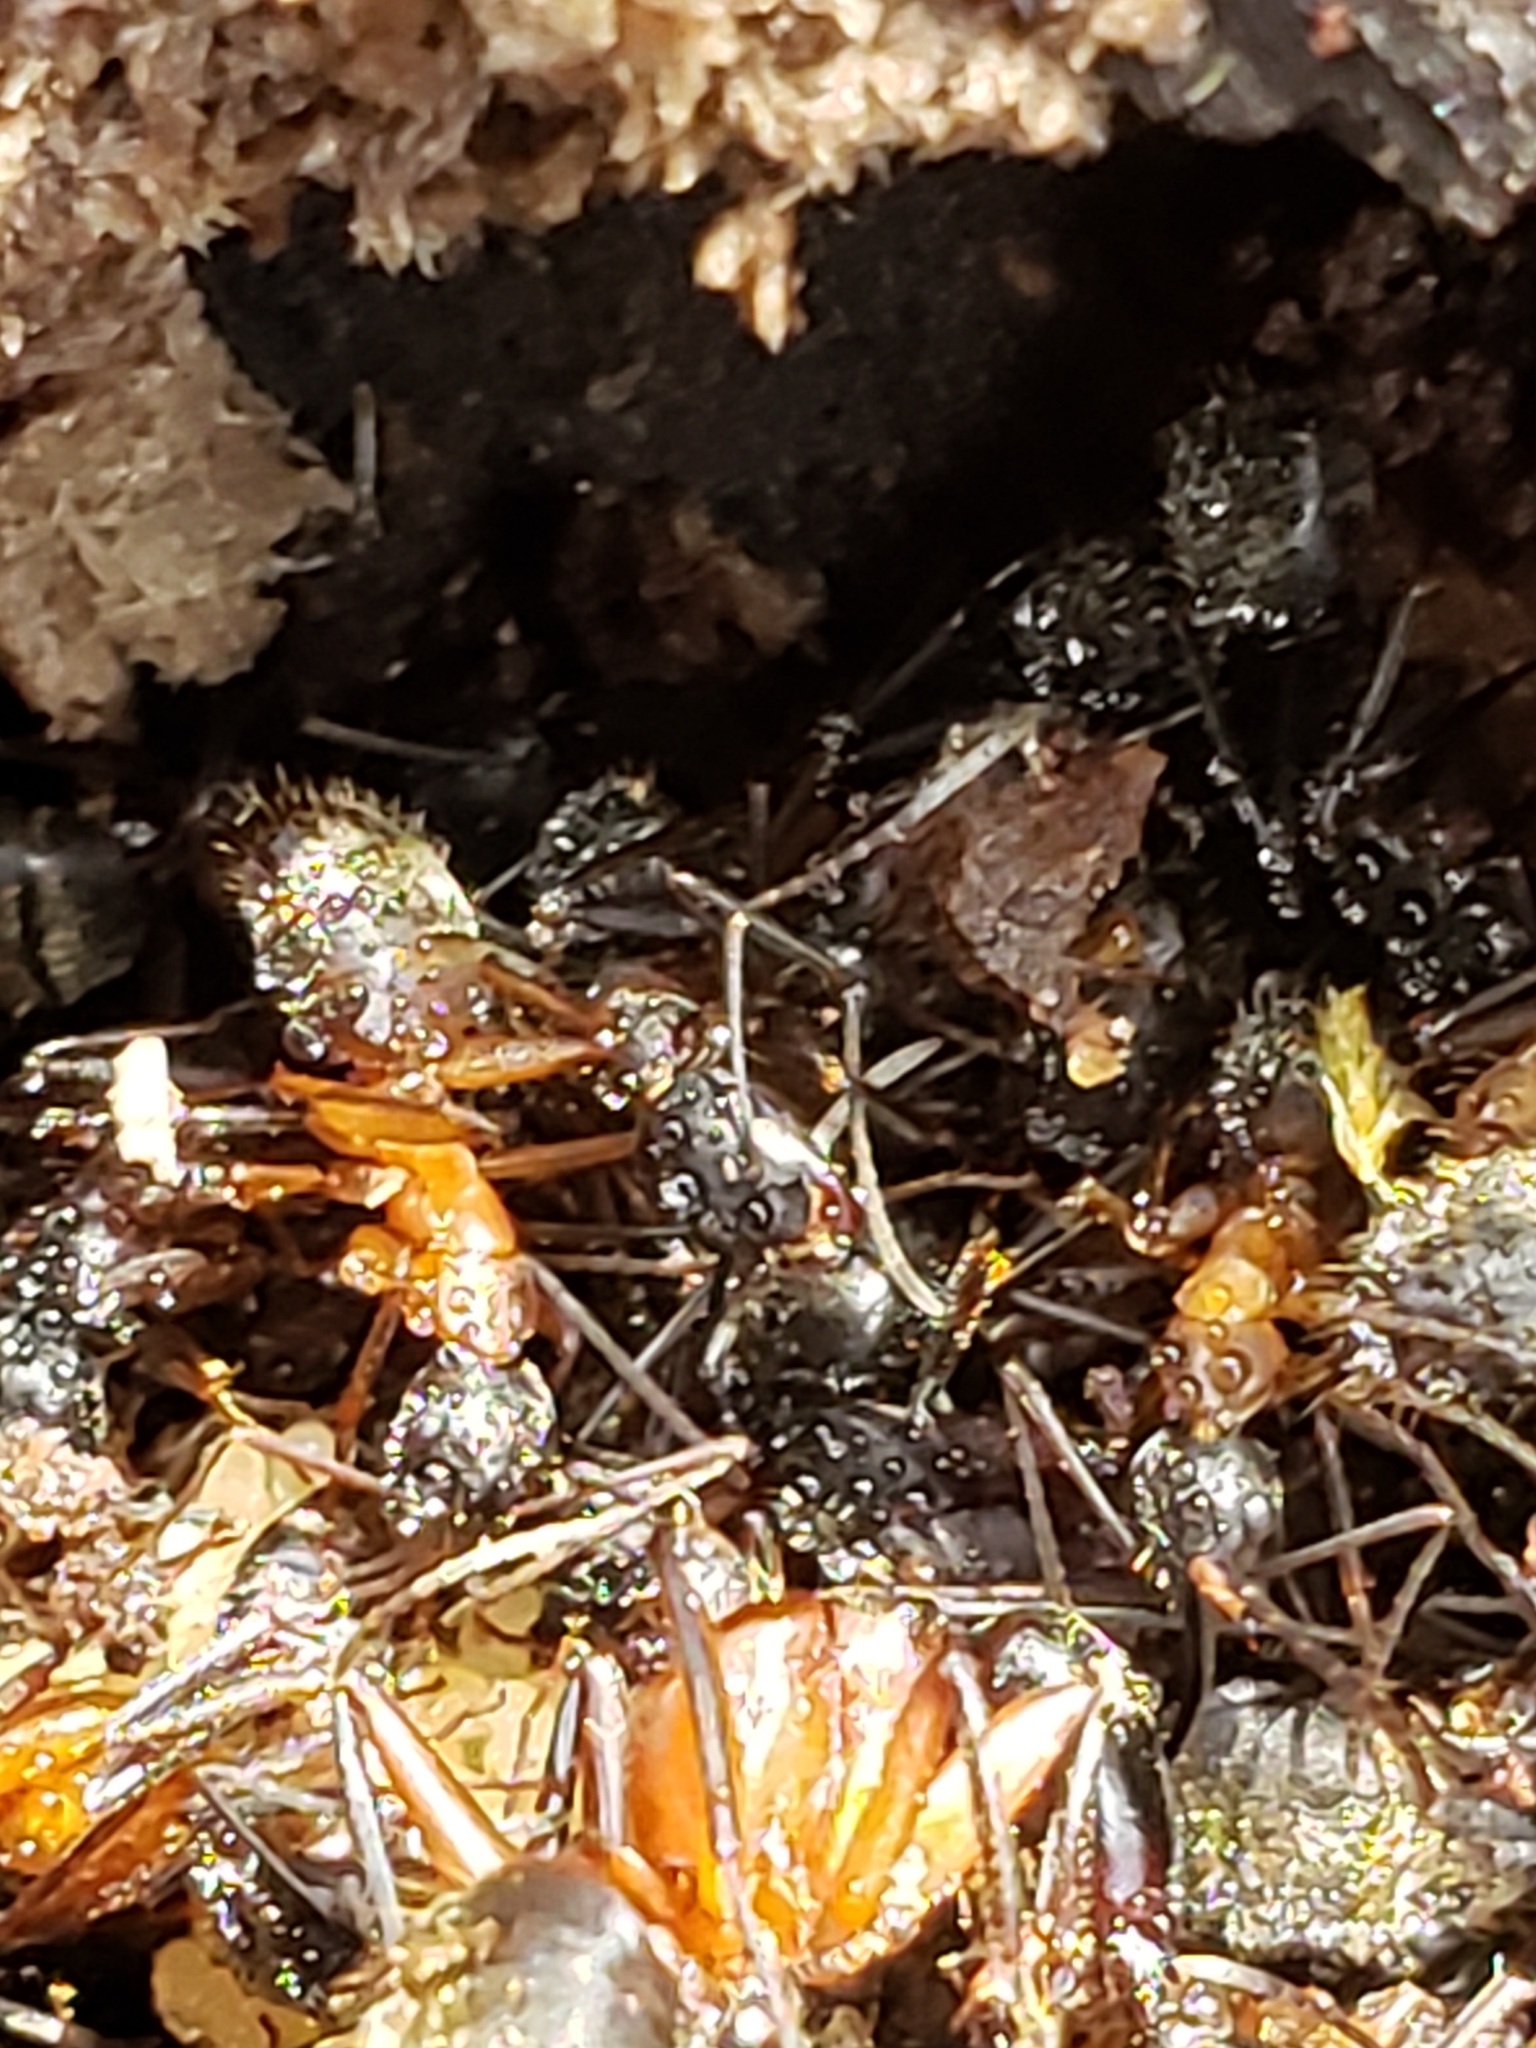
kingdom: Animalia
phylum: Arthropoda
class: Insecta
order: Hymenoptera
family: Formicidae
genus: Camponotus
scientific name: Camponotus chromaiodes
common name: Red carpenter ant
